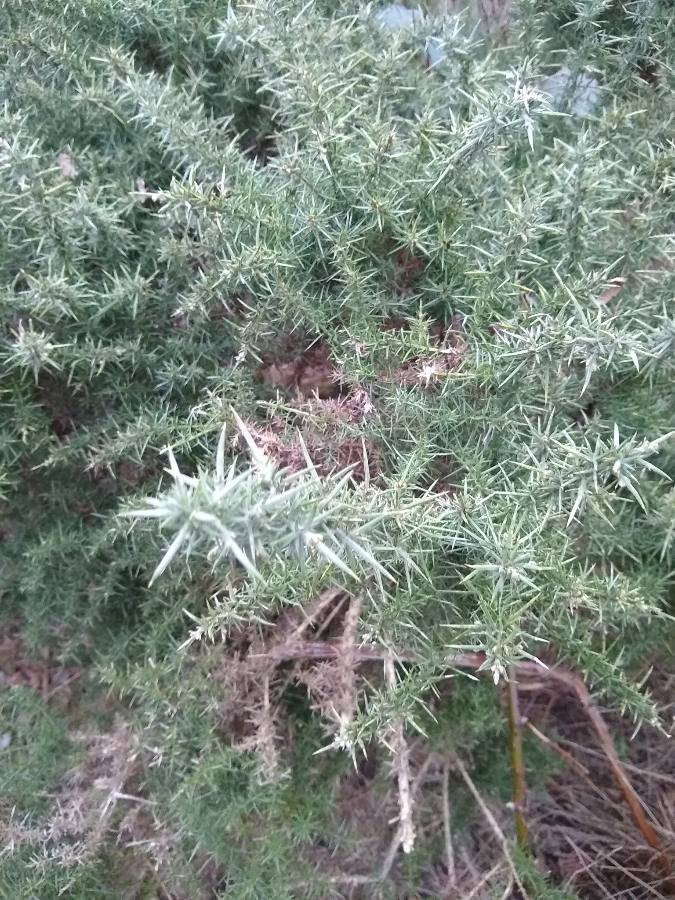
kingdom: Plantae
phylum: Tracheophyta
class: Magnoliopsida
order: Fabales
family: Fabaceae
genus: Ulex
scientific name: Ulex europaeus
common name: Common gorse
